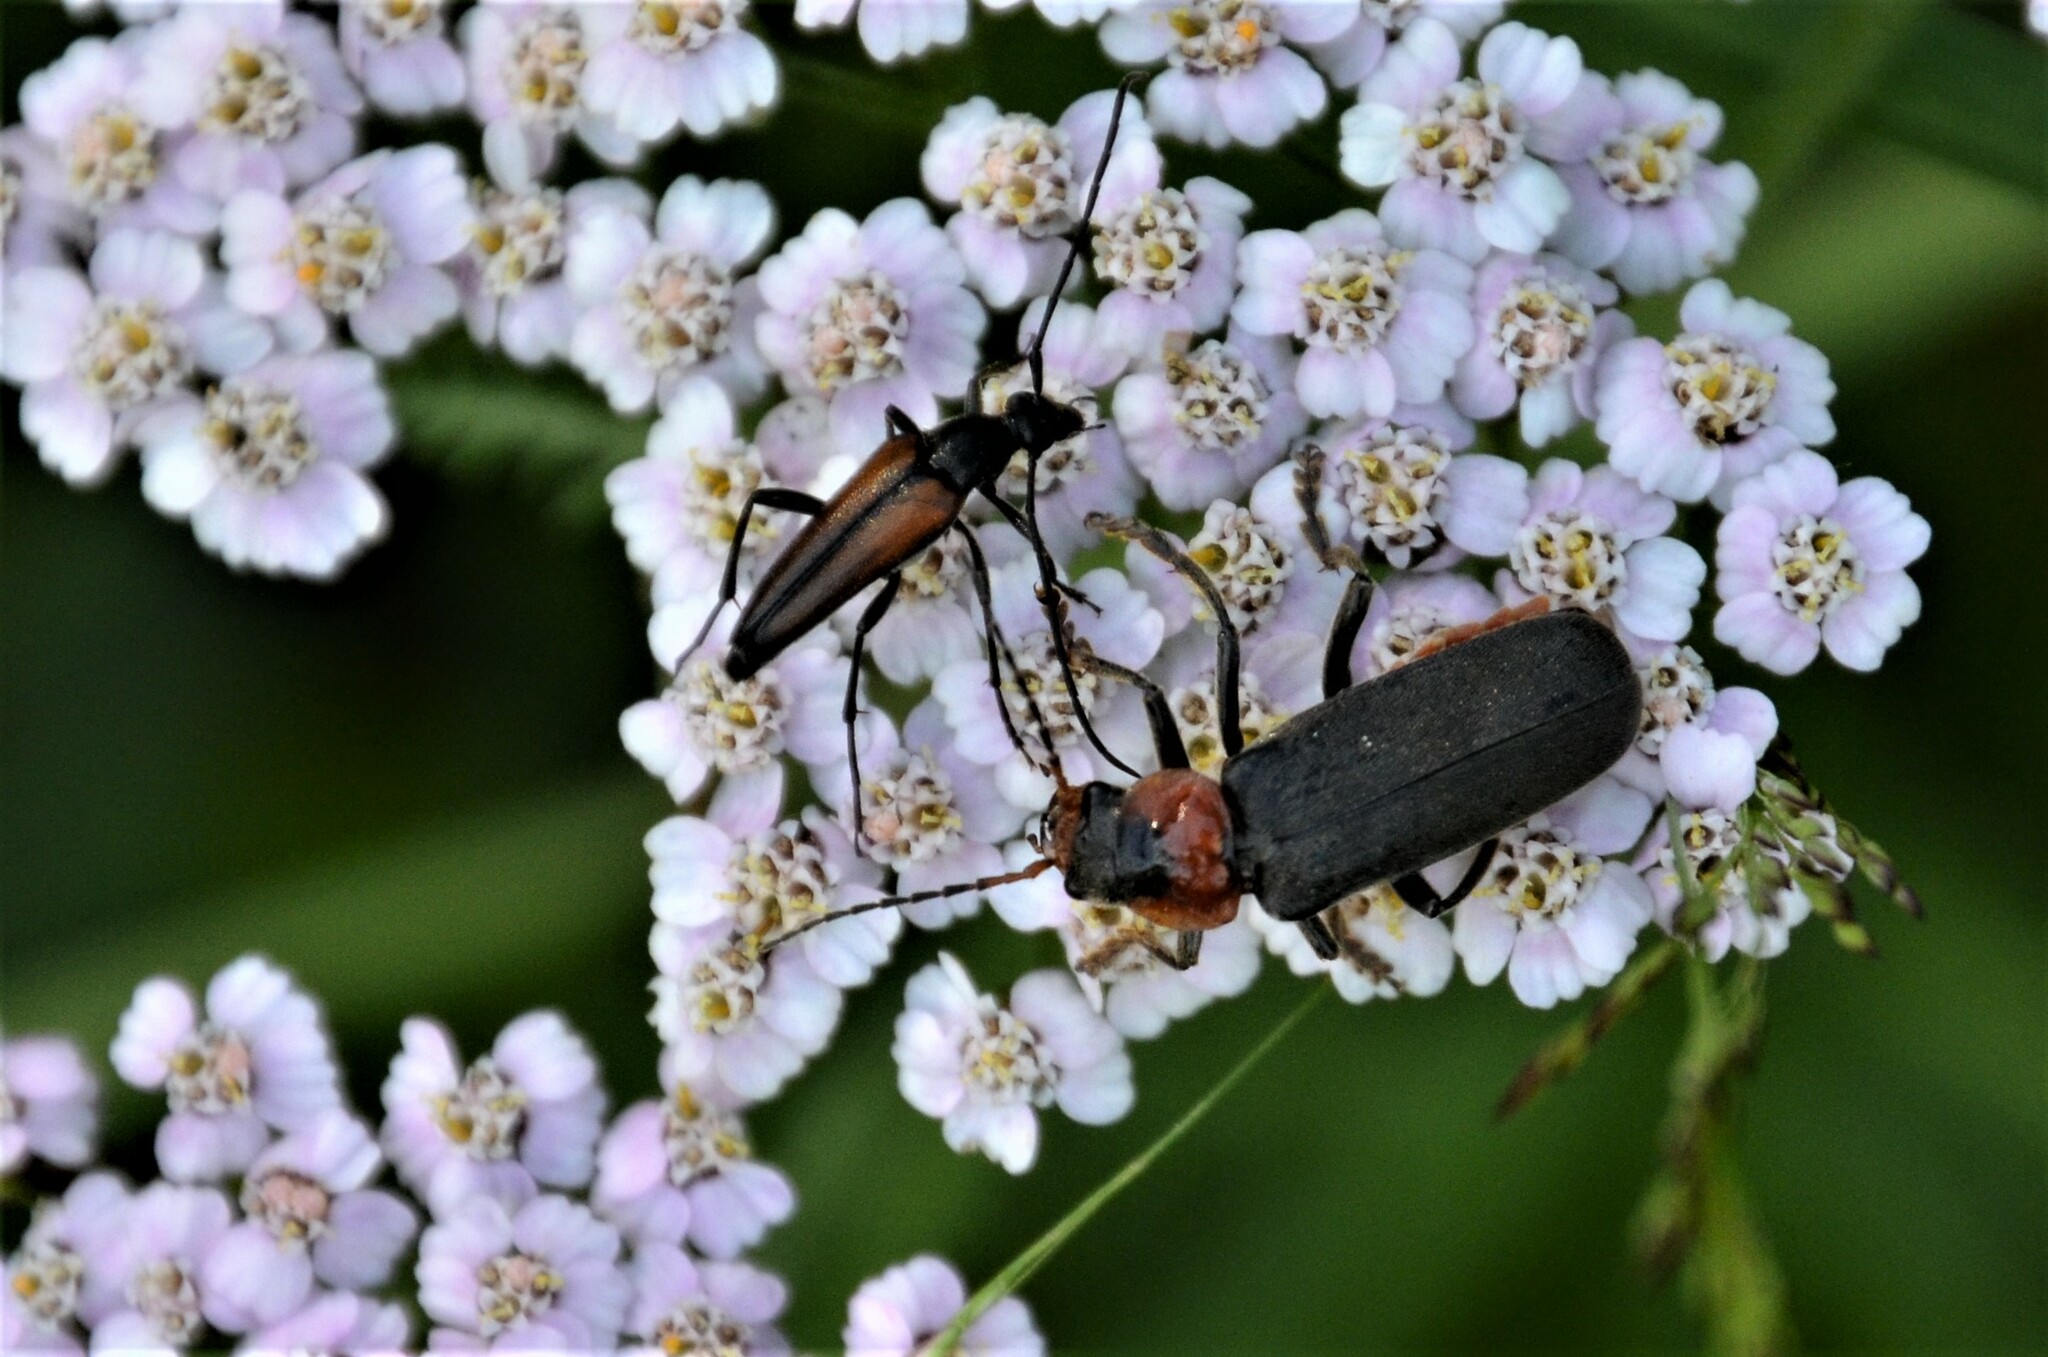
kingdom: Animalia
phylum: Arthropoda
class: Insecta
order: Coleoptera
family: Cerambycidae
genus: Stenurella
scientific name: Stenurella melanura
